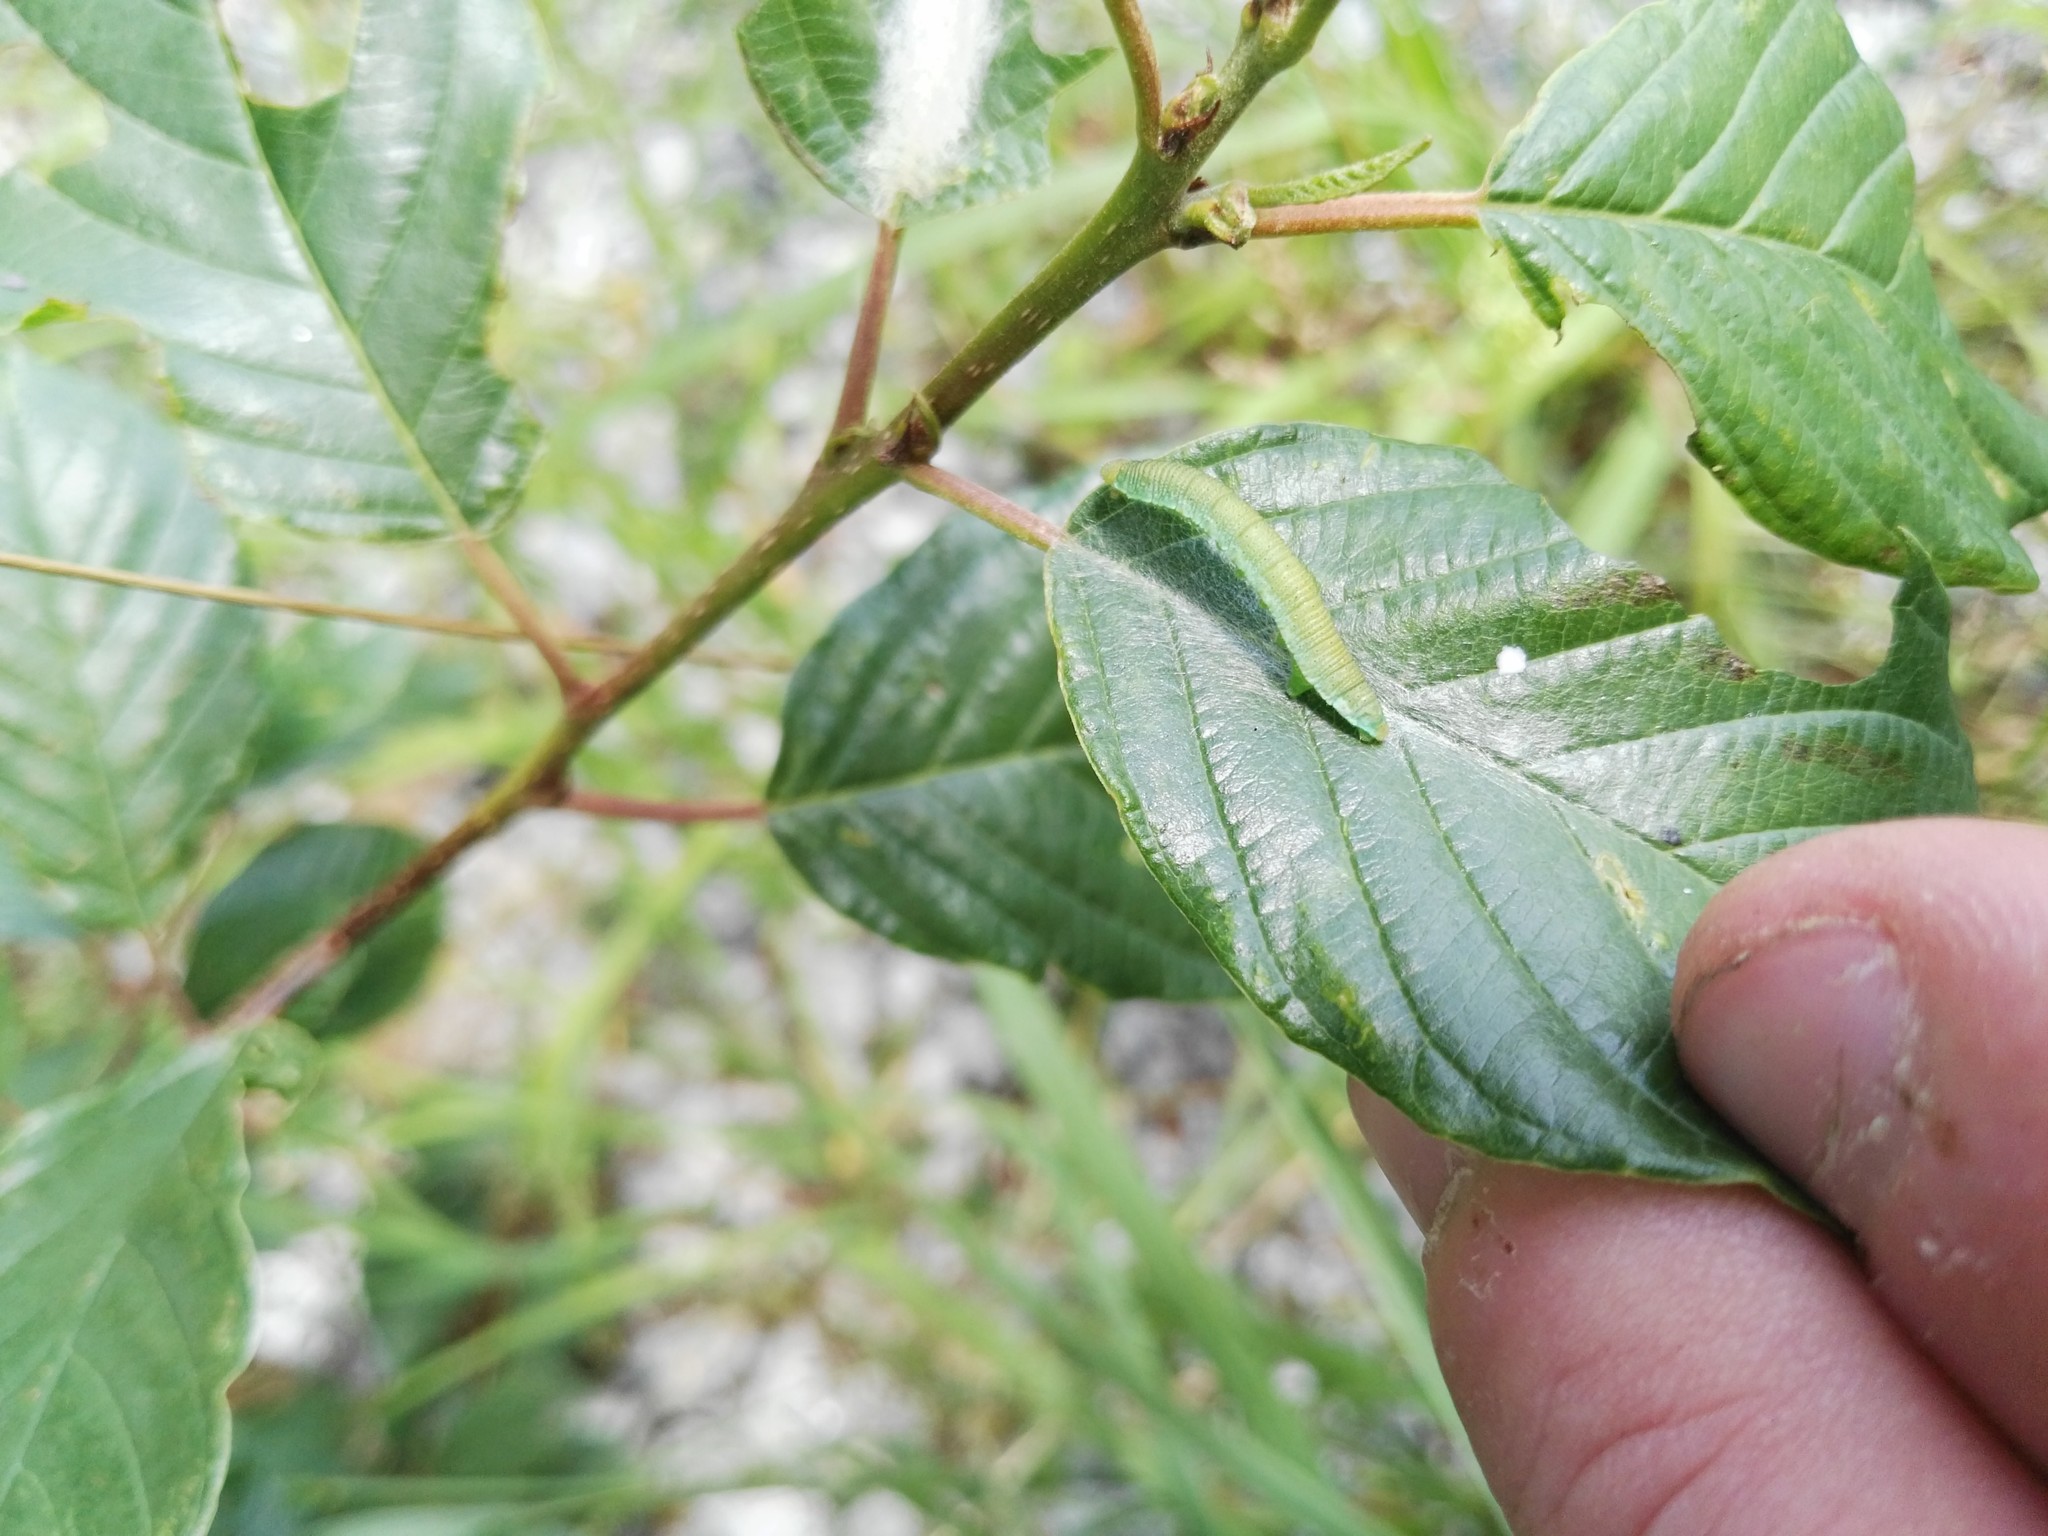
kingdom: Animalia
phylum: Arthropoda
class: Insecta
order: Lepidoptera
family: Pieridae
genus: Gonepteryx
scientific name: Gonepteryx rhamni
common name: Brimstone
